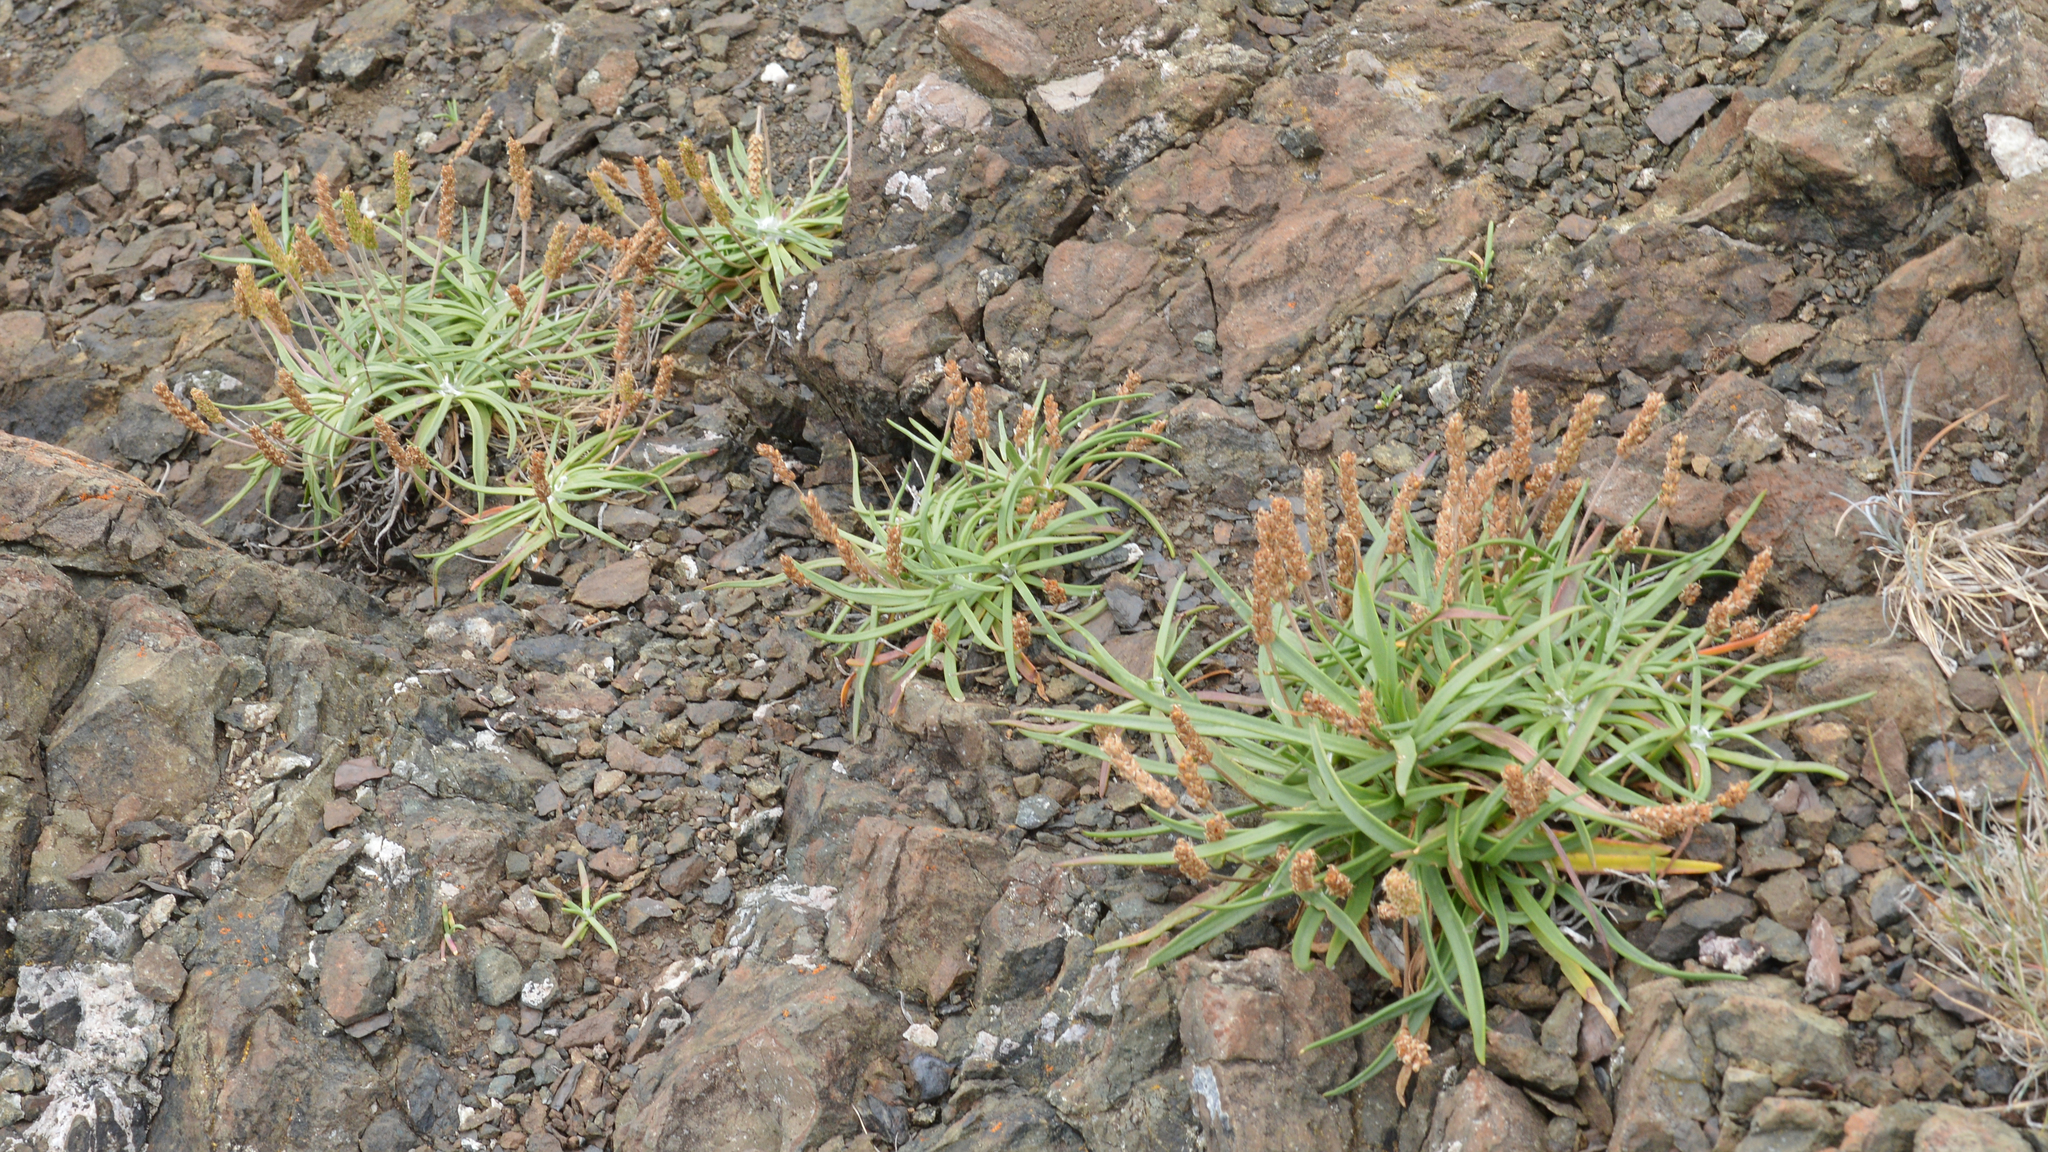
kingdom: Plantae
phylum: Tracheophyta
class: Magnoliopsida
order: Lamiales
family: Plantaginaceae
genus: Plantago
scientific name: Plantago maritima
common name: Sea plantain
